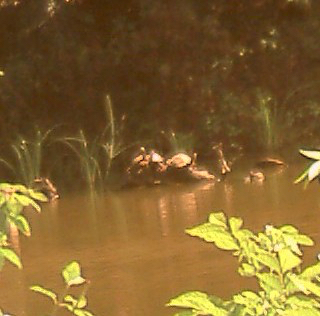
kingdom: Animalia
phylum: Chordata
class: Testudines
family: Geoemydidae
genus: Melanochelys
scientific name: Melanochelys trijuga
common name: Indian black turtle
